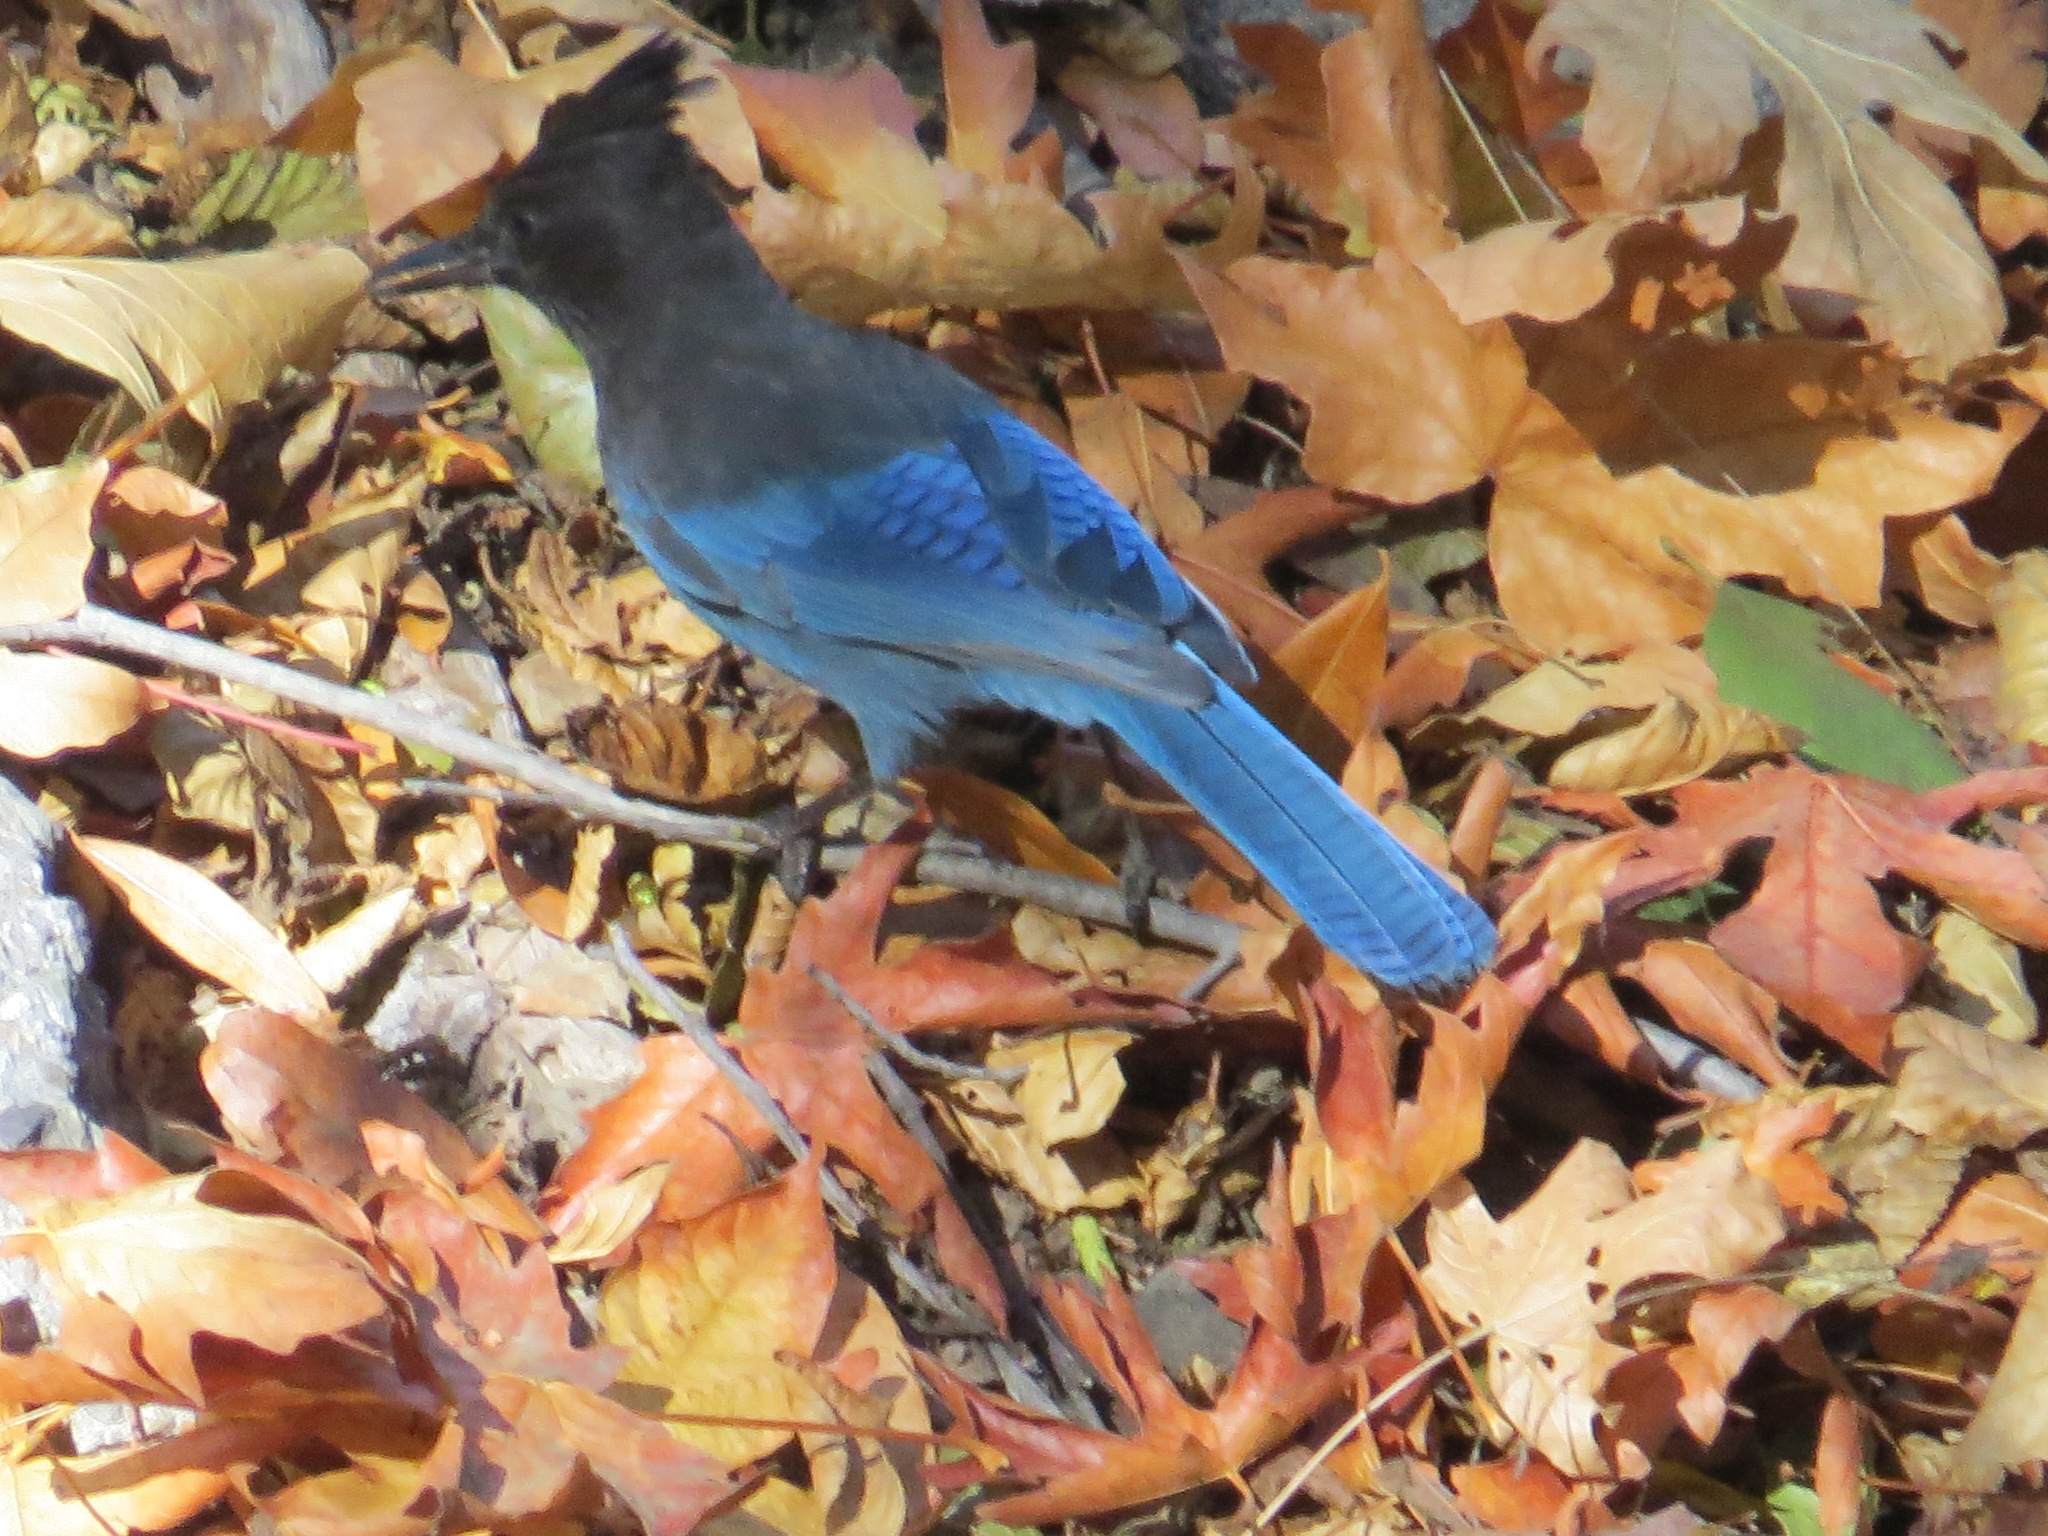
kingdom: Animalia
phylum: Chordata
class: Aves
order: Passeriformes
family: Corvidae
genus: Cyanocitta
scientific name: Cyanocitta stelleri
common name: Steller's jay
